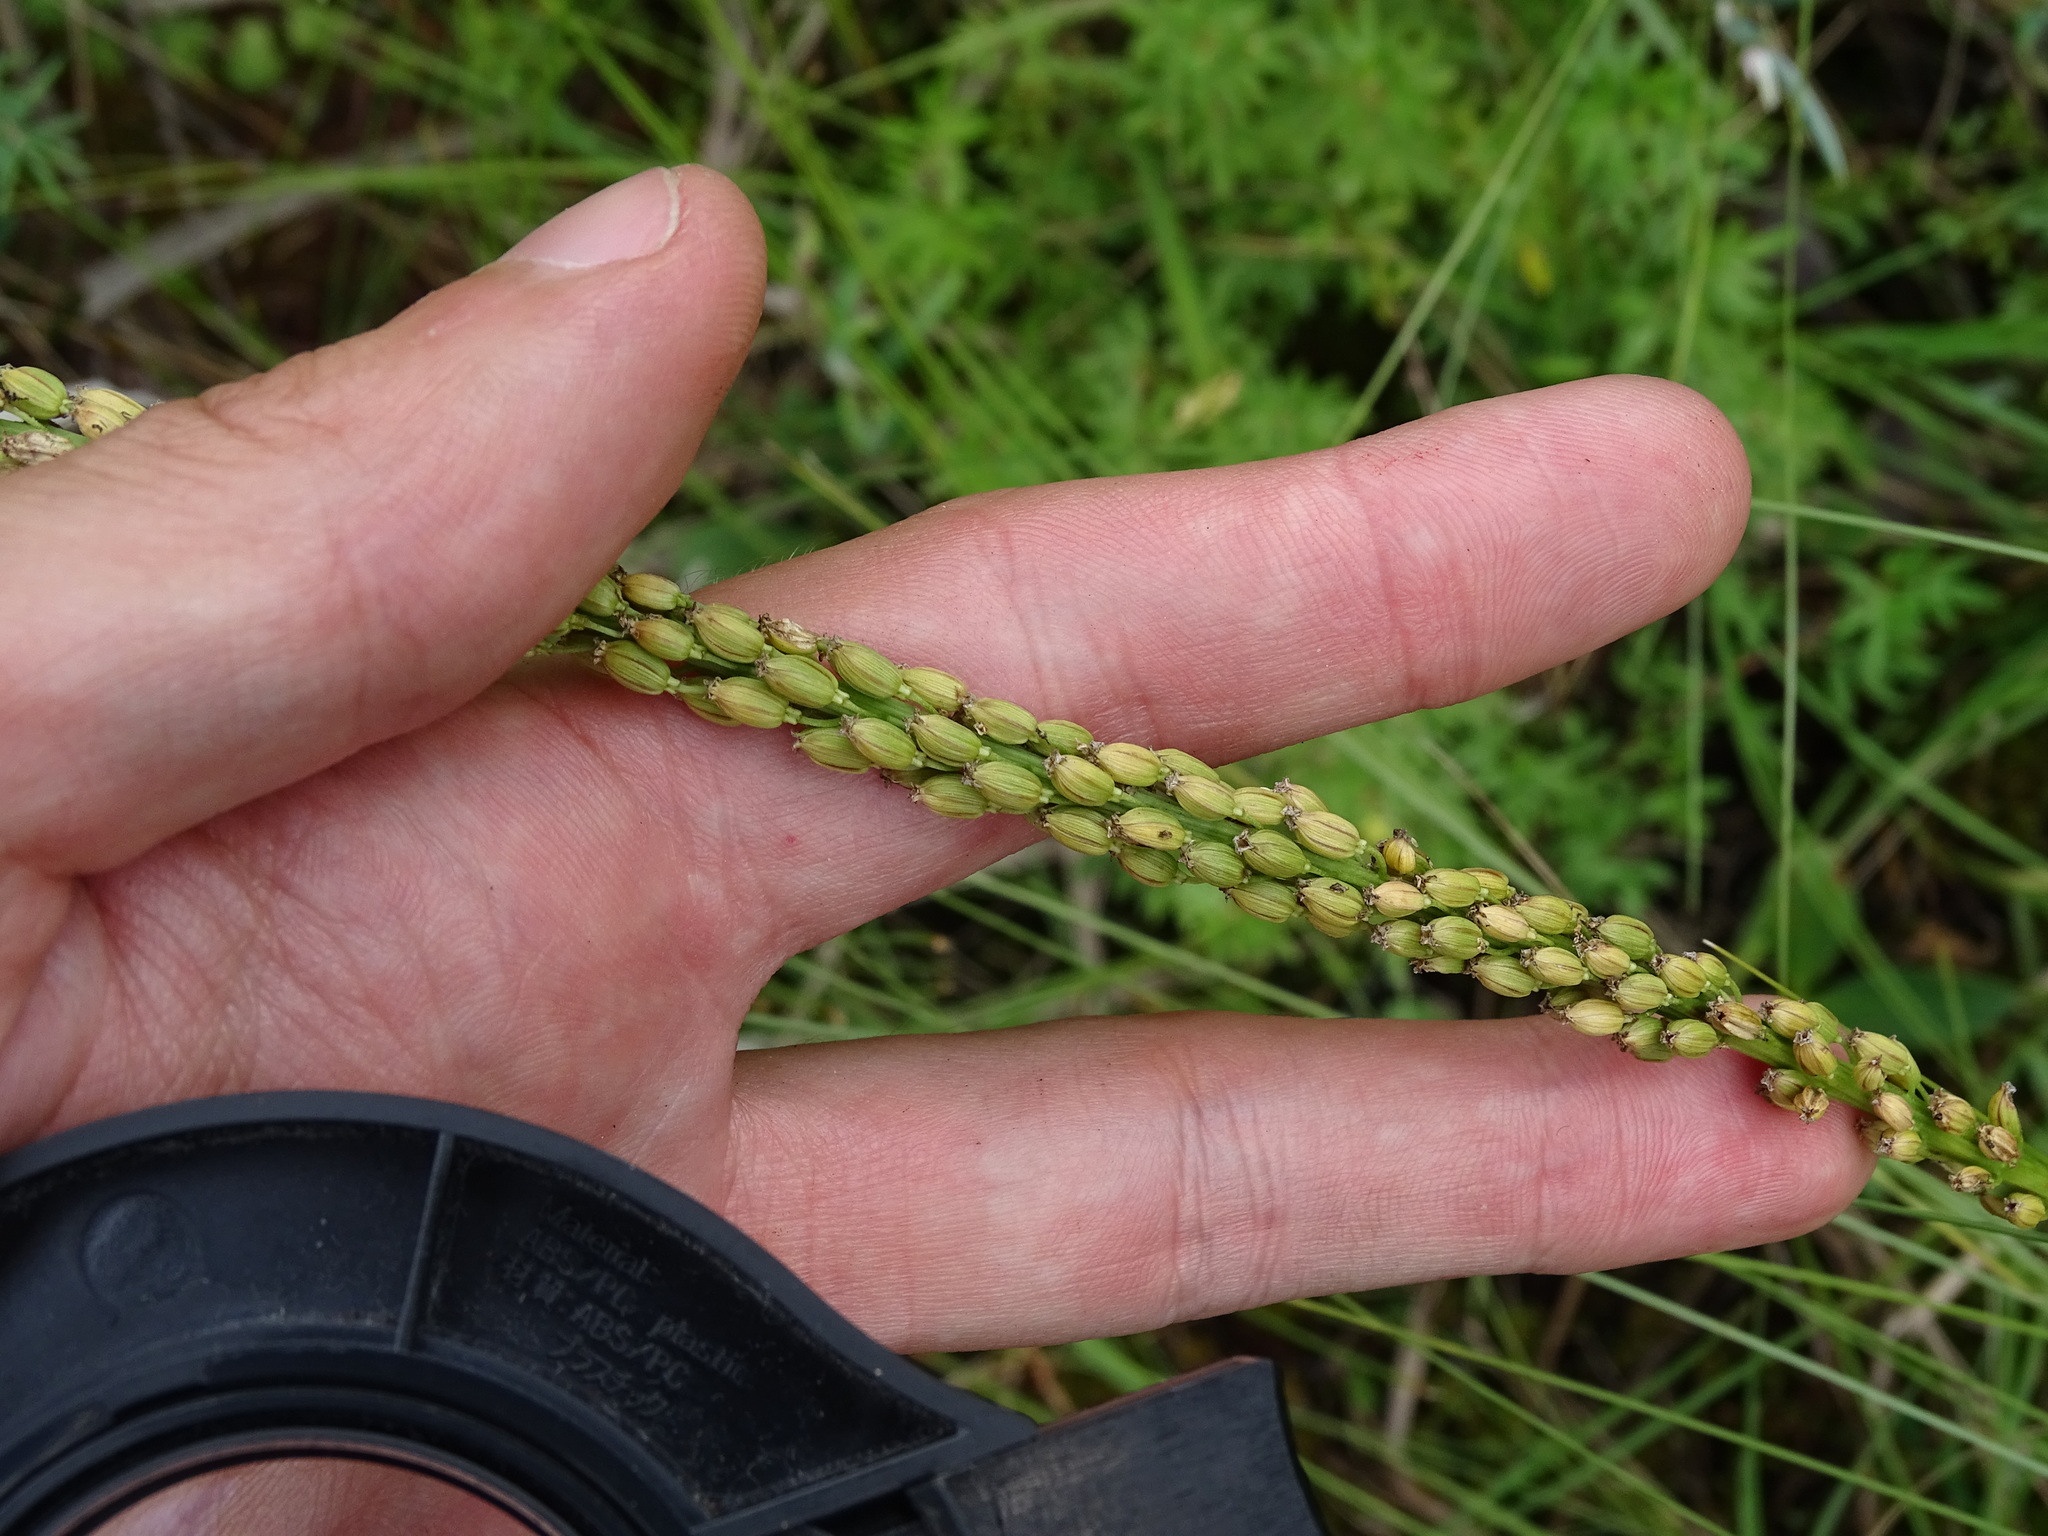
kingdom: Plantae
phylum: Tracheophyta
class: Liliopsida
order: Alismatales
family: Juncaginaceae
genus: Triglochin
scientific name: Triglochin maritima
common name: Sea arrowgrass
